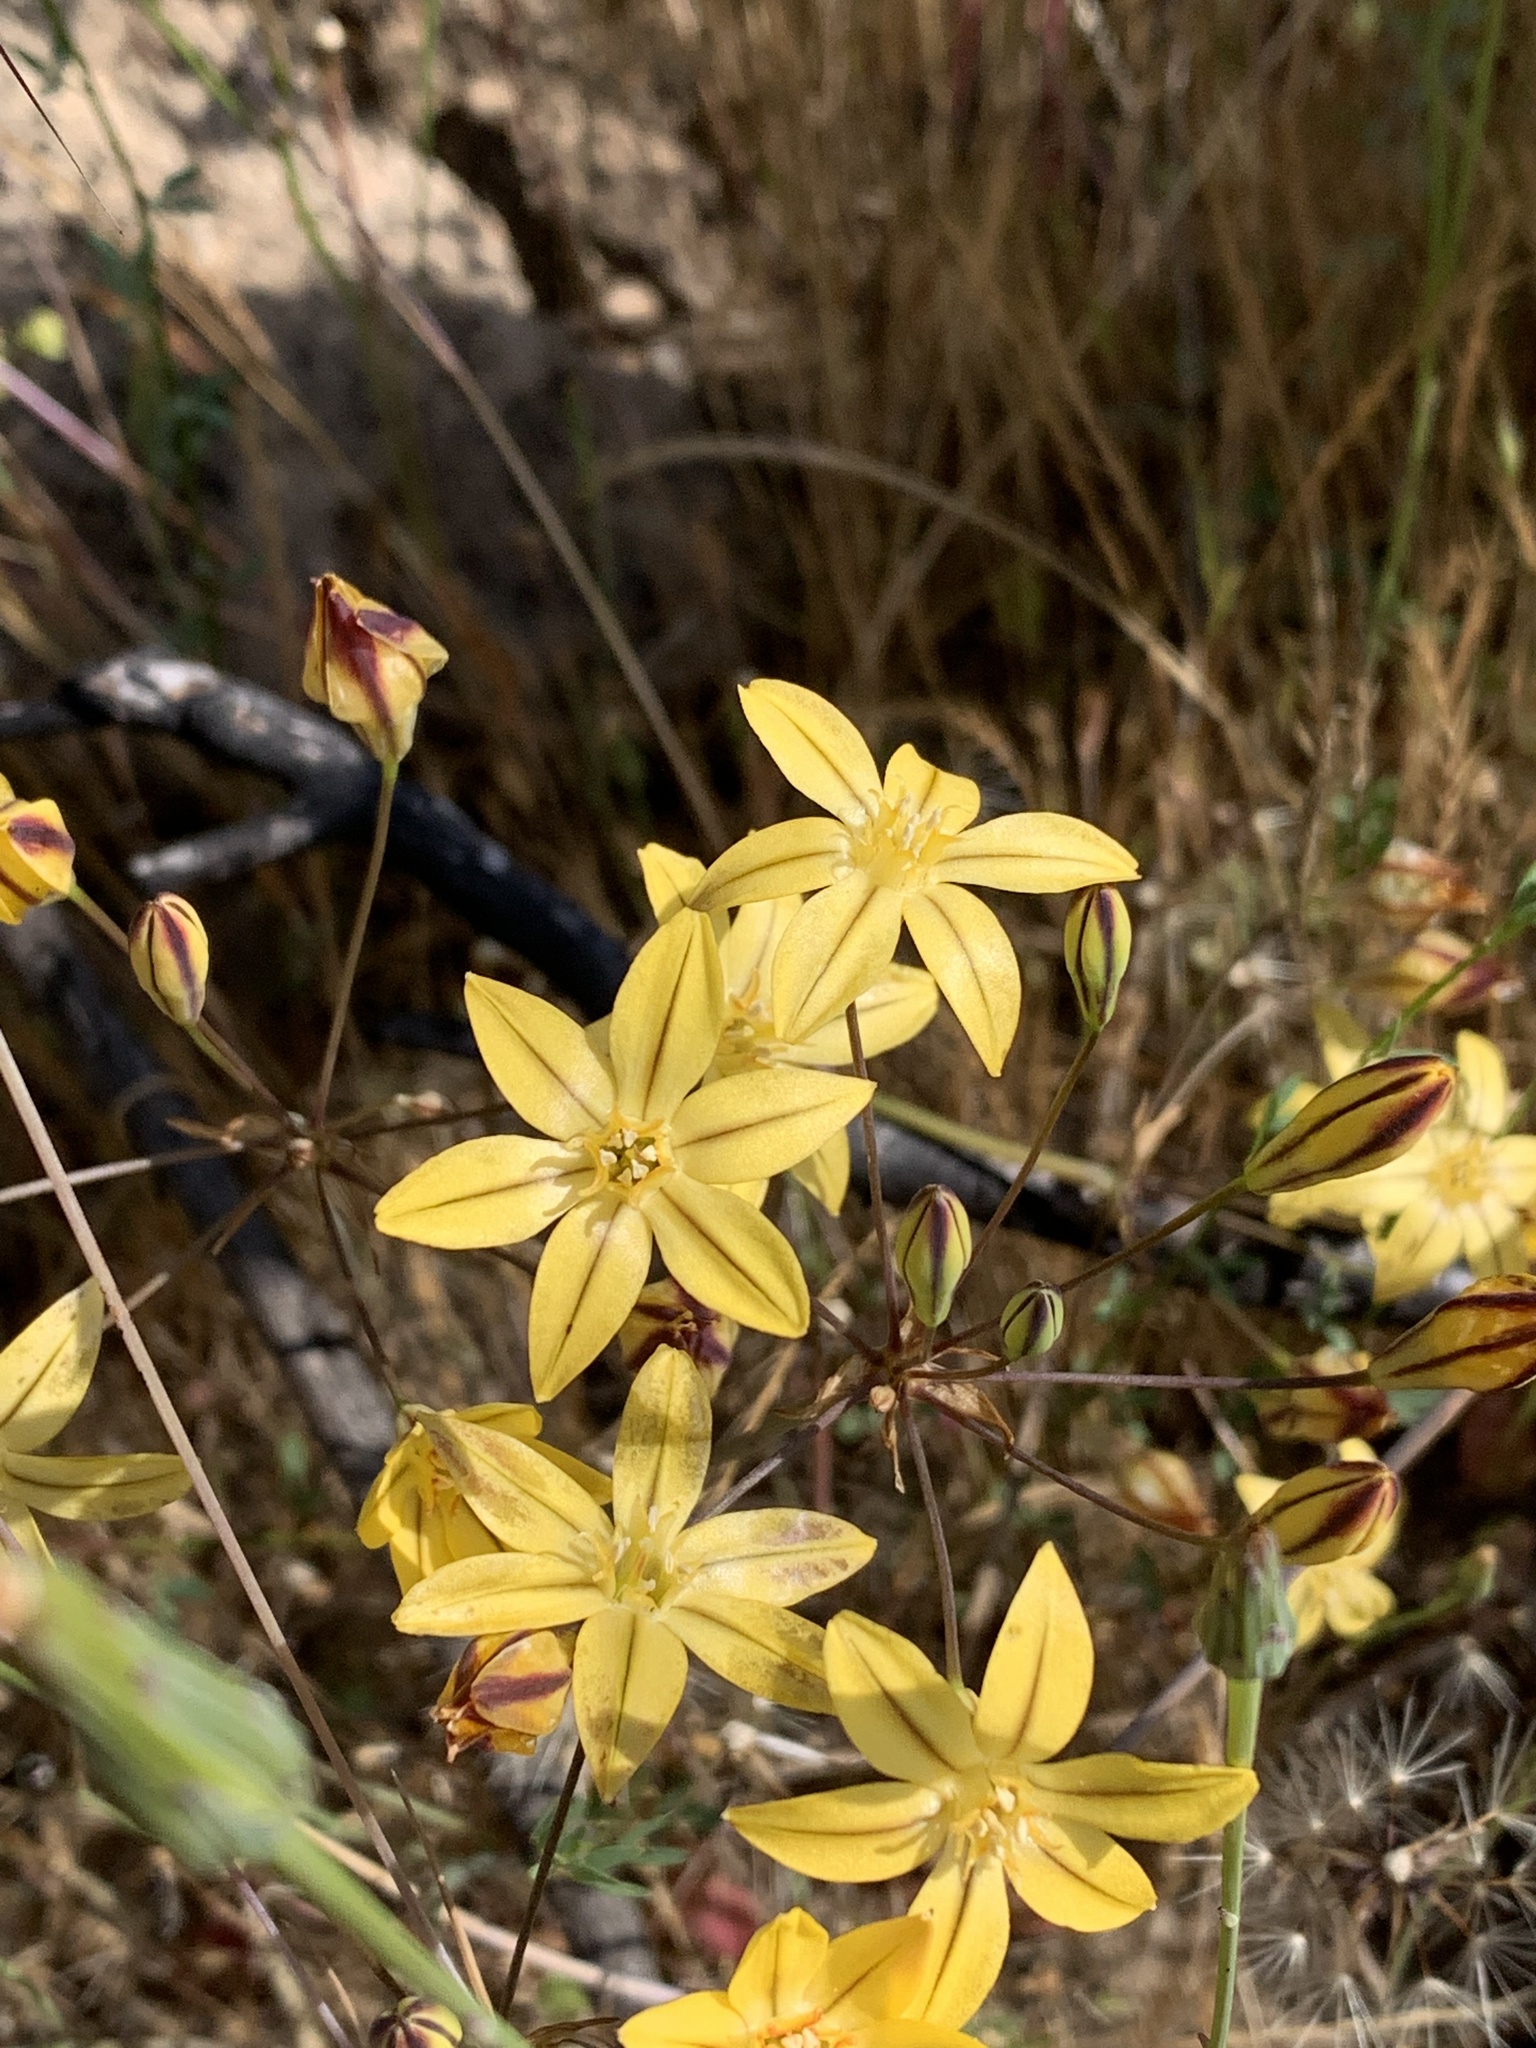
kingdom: Plantae
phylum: Tracheophyta
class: Liliopsida
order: Asparagales
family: Asparagaceae
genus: Triteleia
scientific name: Triteleia ixioides
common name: Yellow-brodiaea
